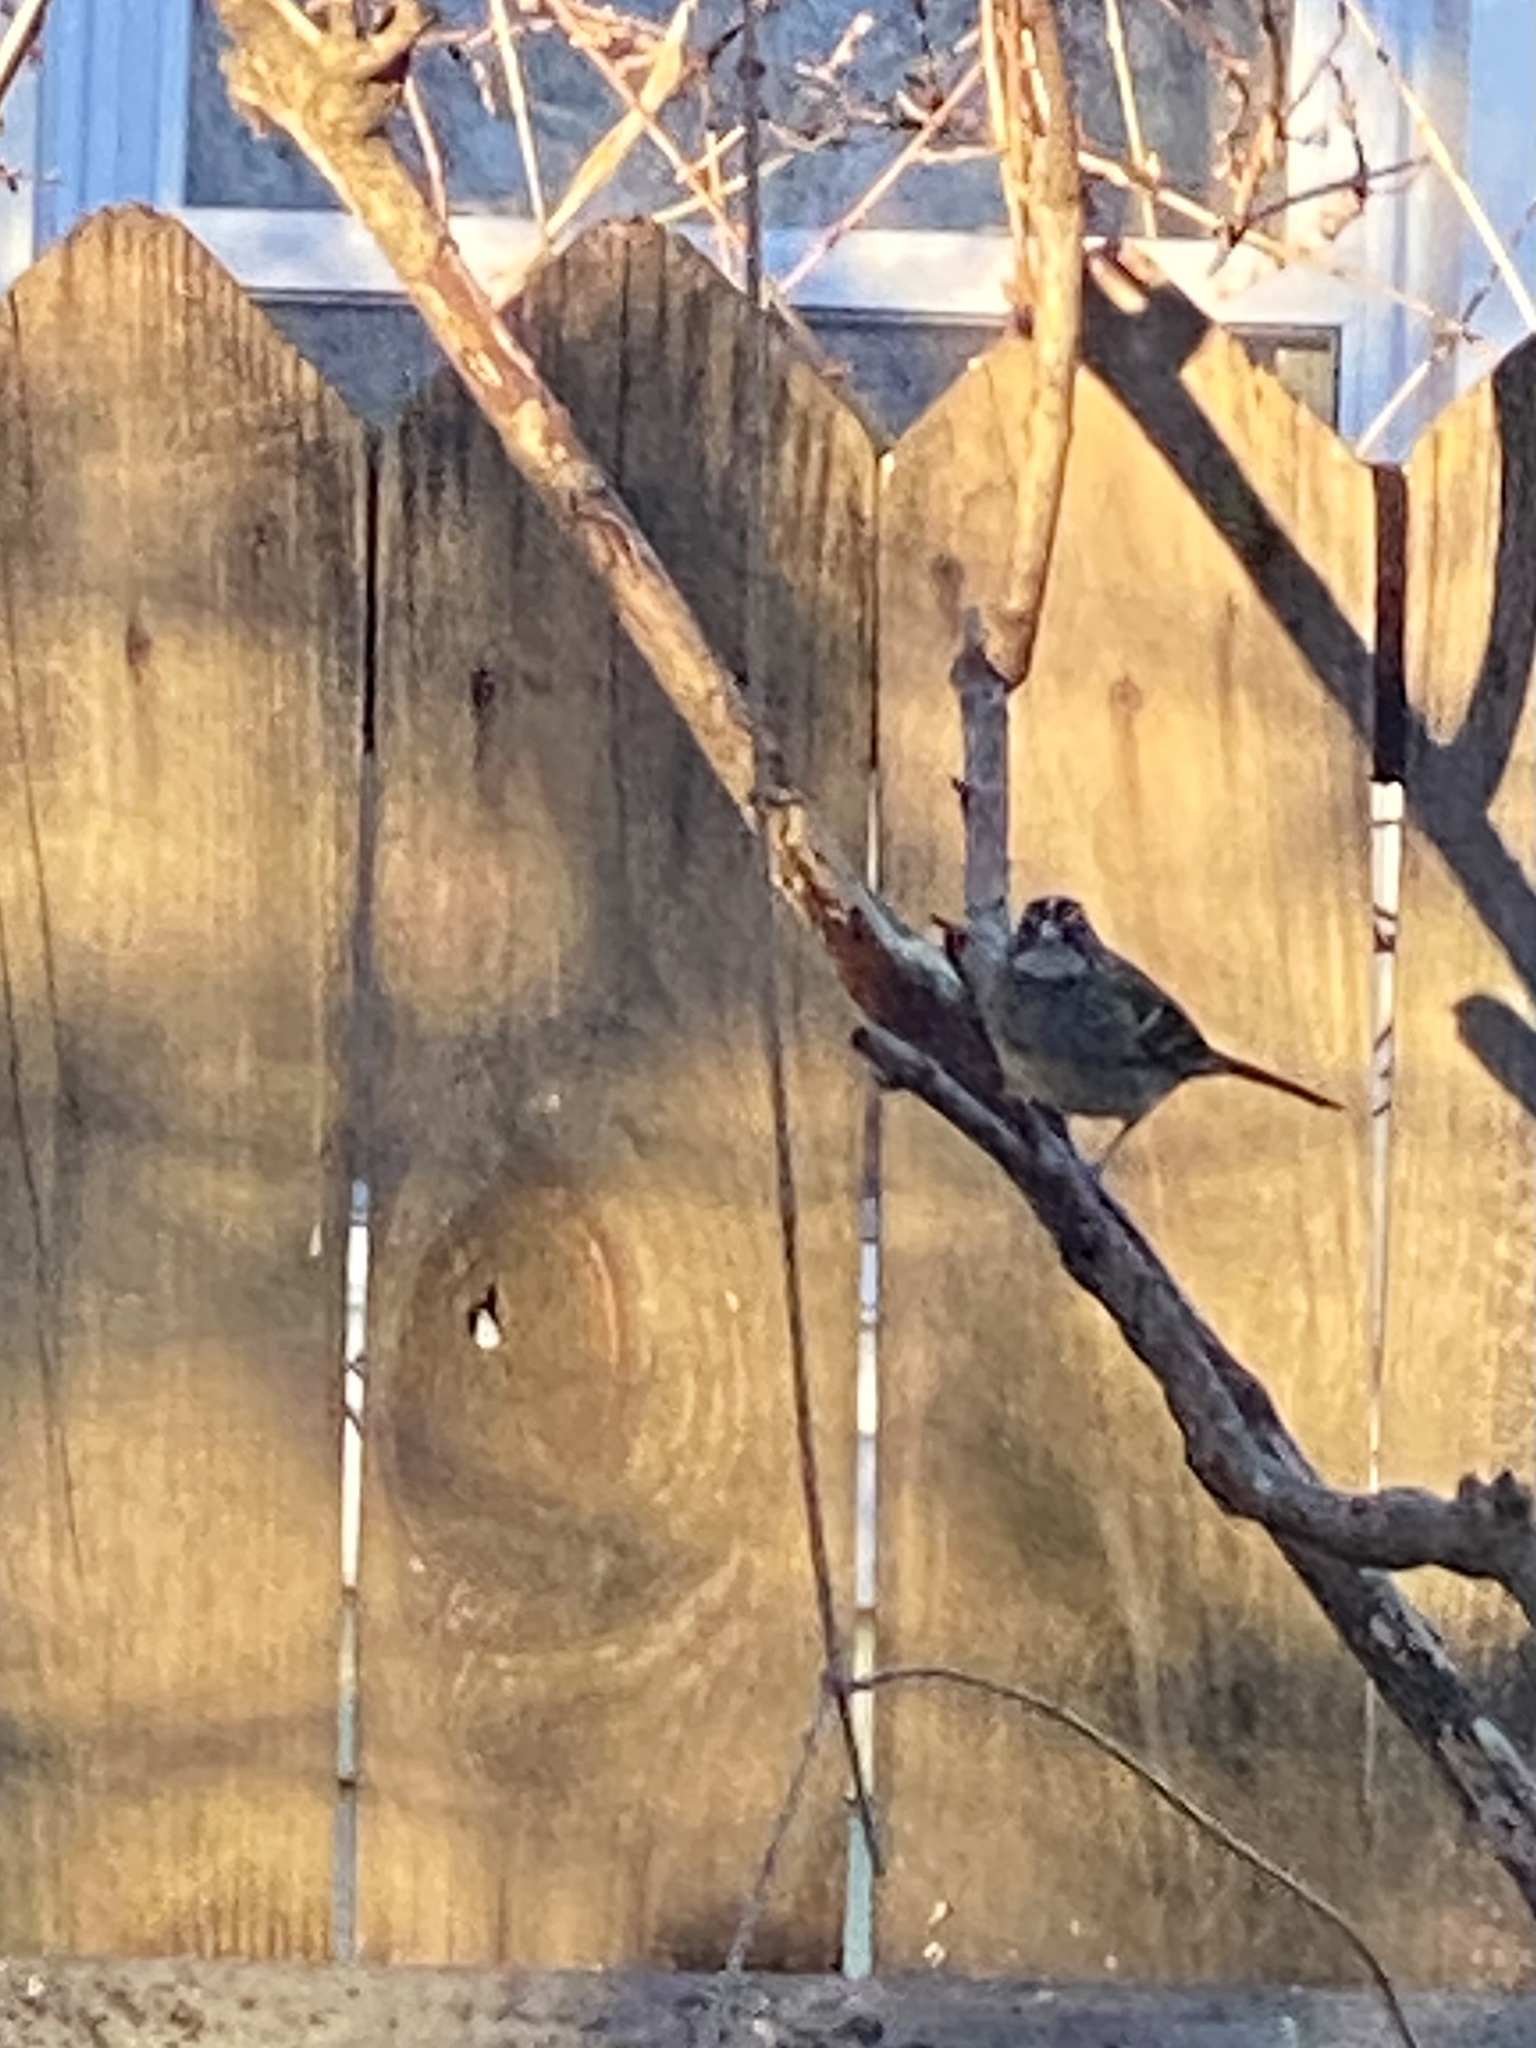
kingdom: Animalia
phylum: Chordata
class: Aves
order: Passeriformes
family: Passerellidae
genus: Zonotrichia
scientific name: Zonotrichia albicollis
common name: White-throated sparrow
